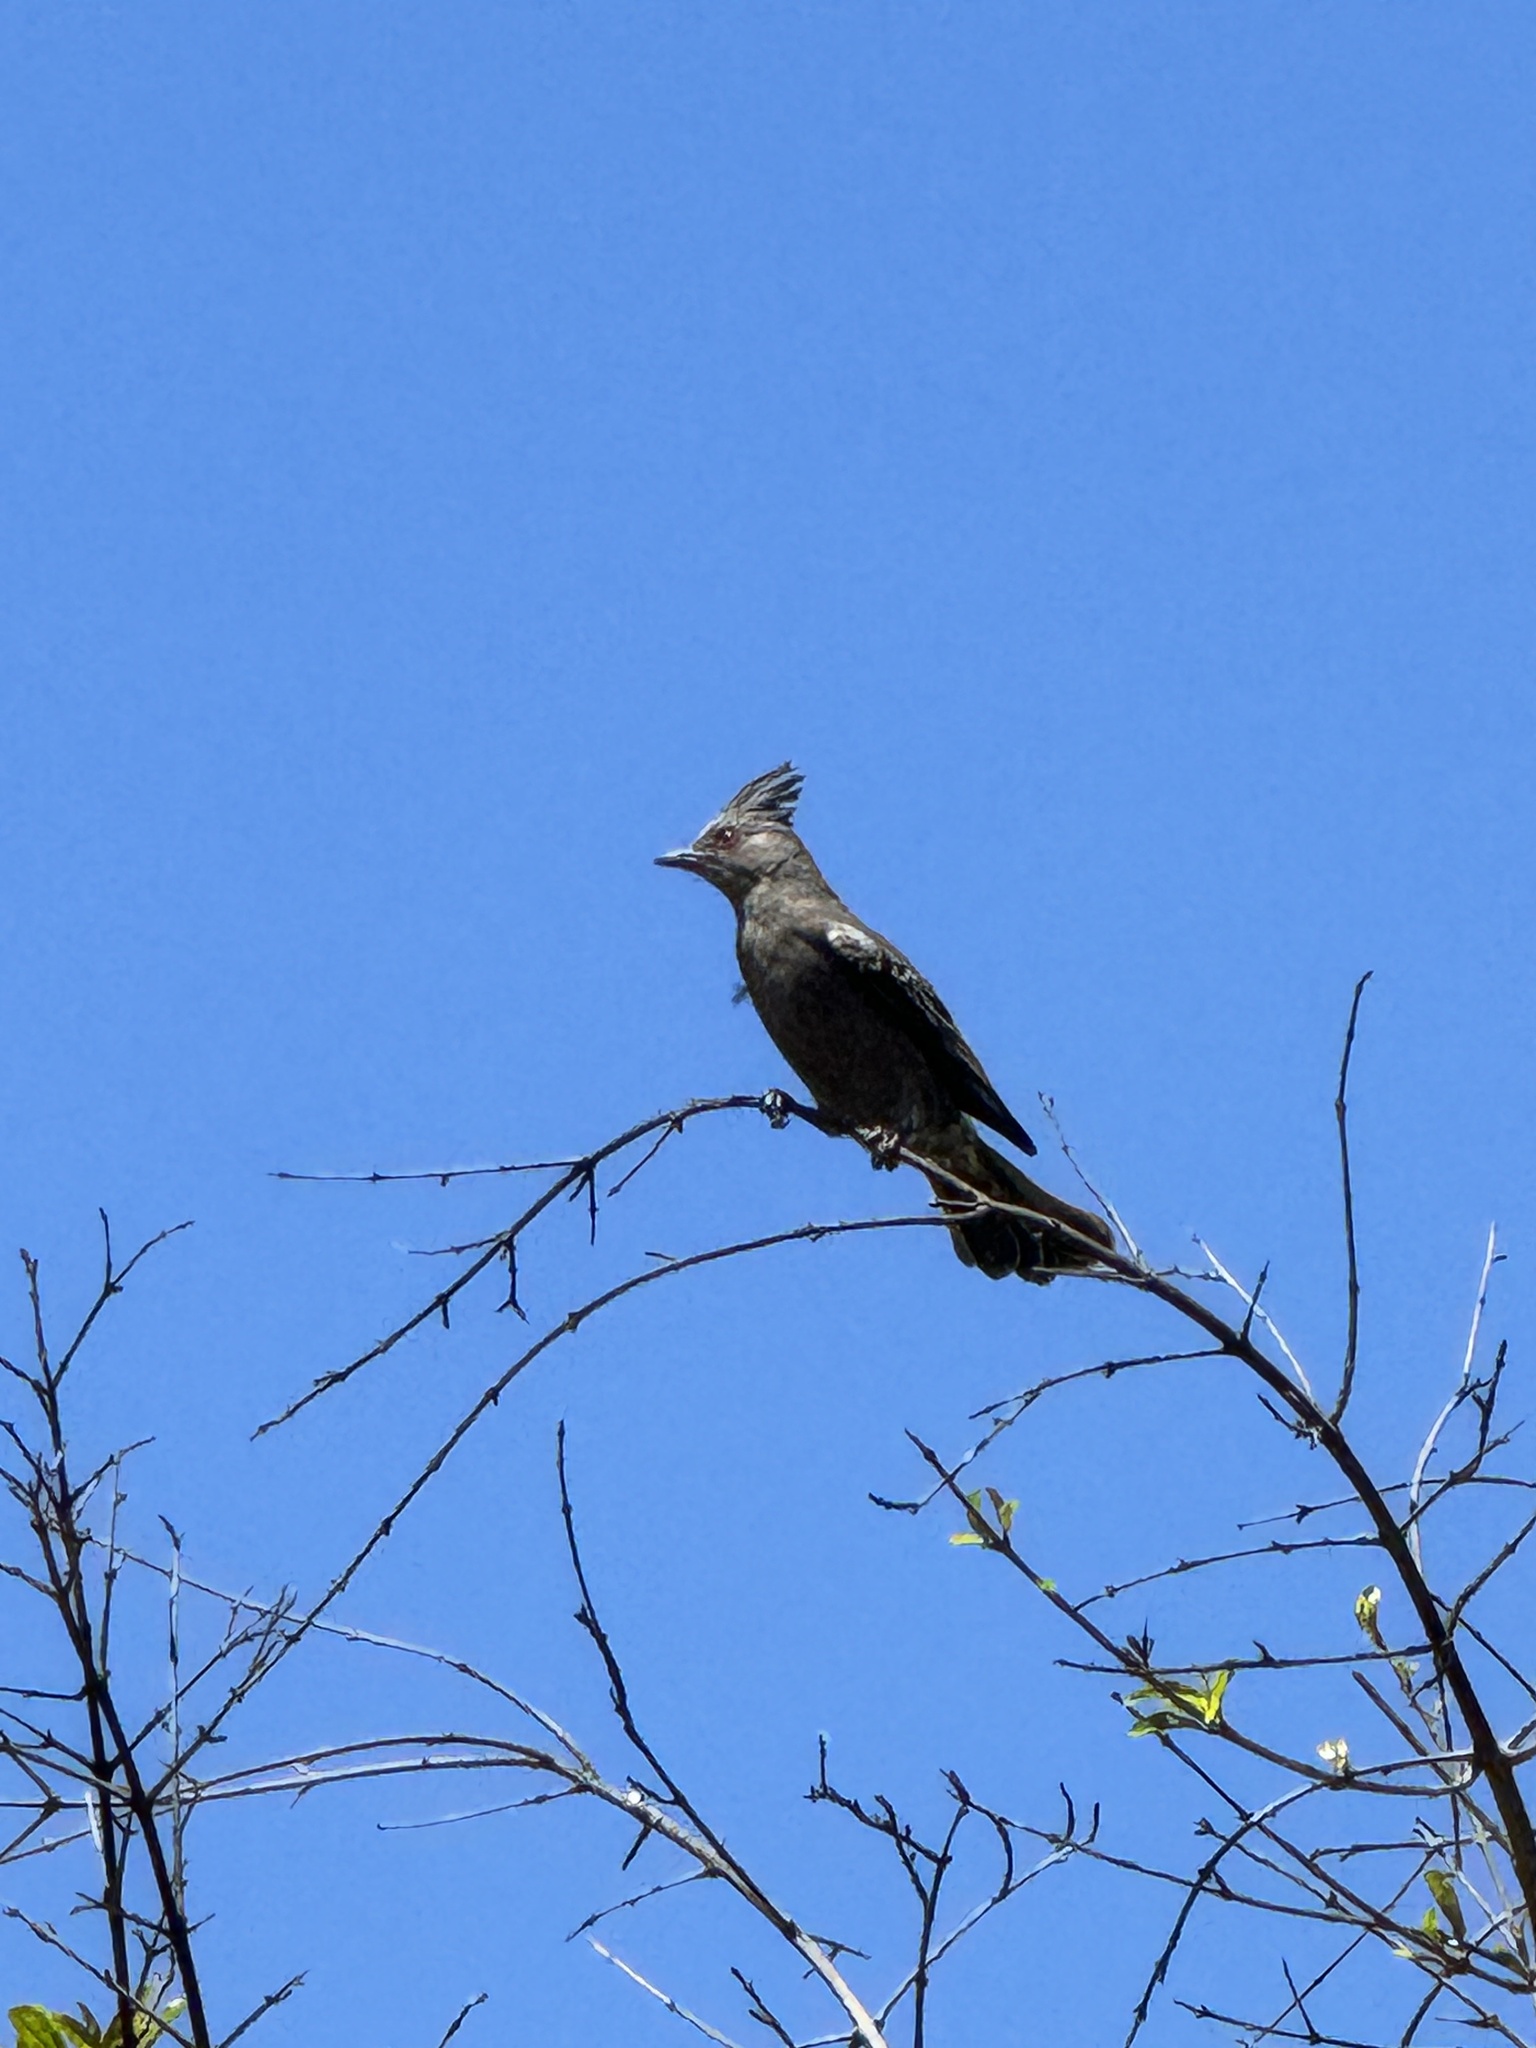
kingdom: Animalia
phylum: Chordata
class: Aves
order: Passeriformes
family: Ptilogonatidae
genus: Phainopepla
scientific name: Phainopepla nitens
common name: Phainopepla
